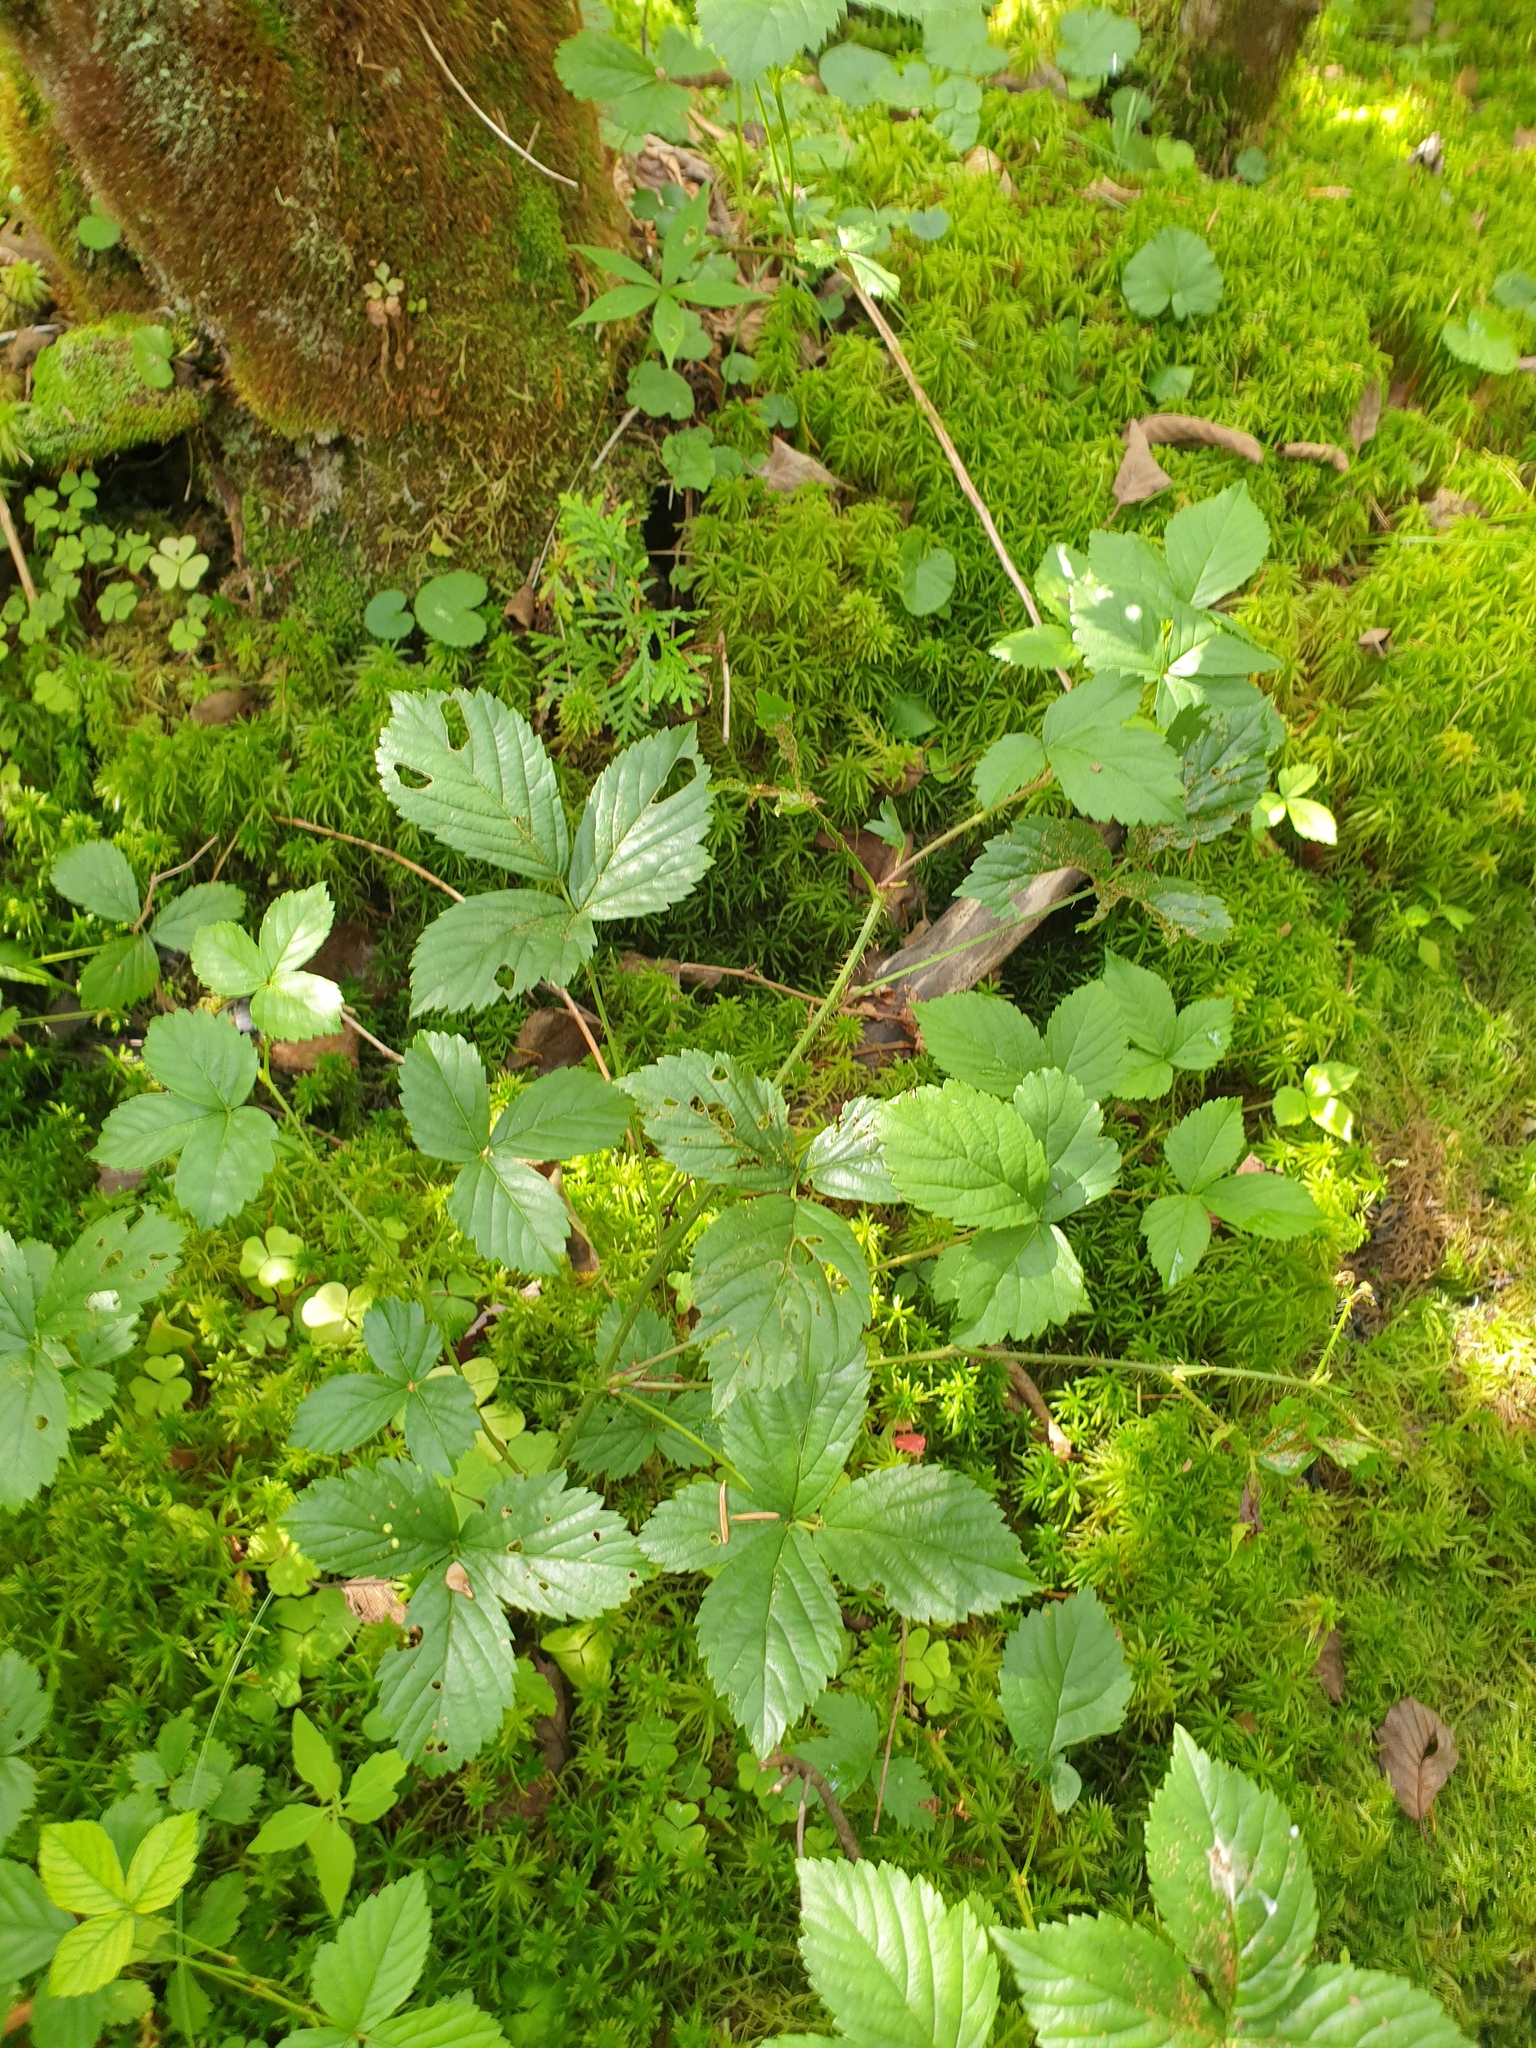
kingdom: Plantae
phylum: Tracheophyta
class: Magnoliopsida
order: Rosales
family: Rosaceae
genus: Rubus
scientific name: Rubus hispidus
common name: Running blackberry
